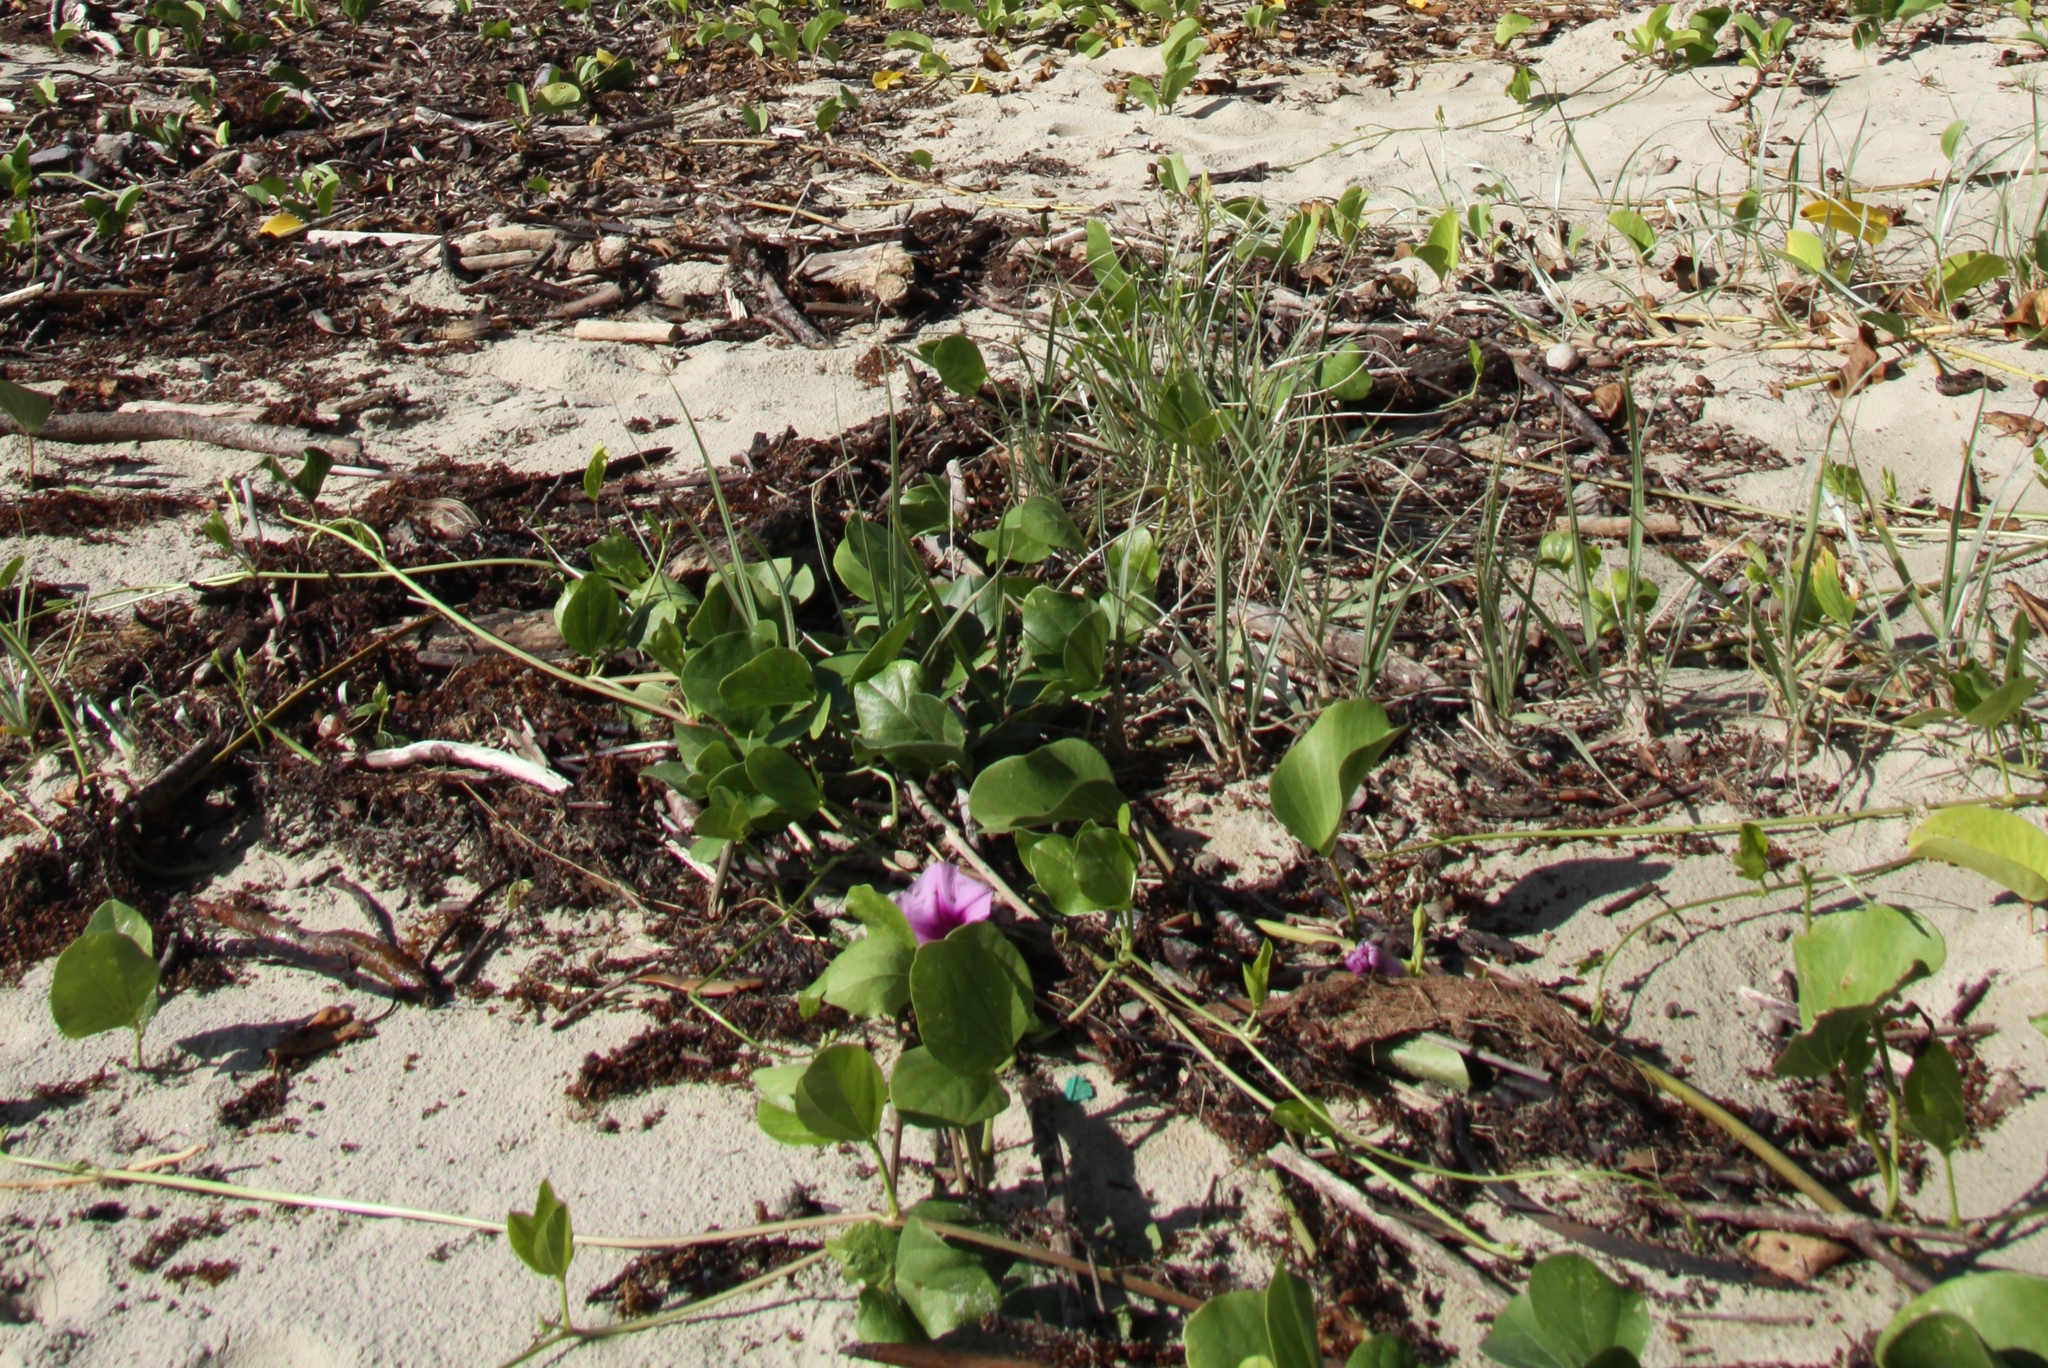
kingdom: Plantae
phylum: Tracheophyta
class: Magnoliopsida
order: Solanales
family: Convolvulaceae
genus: Ipomoea
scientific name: Ipomoea pes-caprae
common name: Beach morning glory
